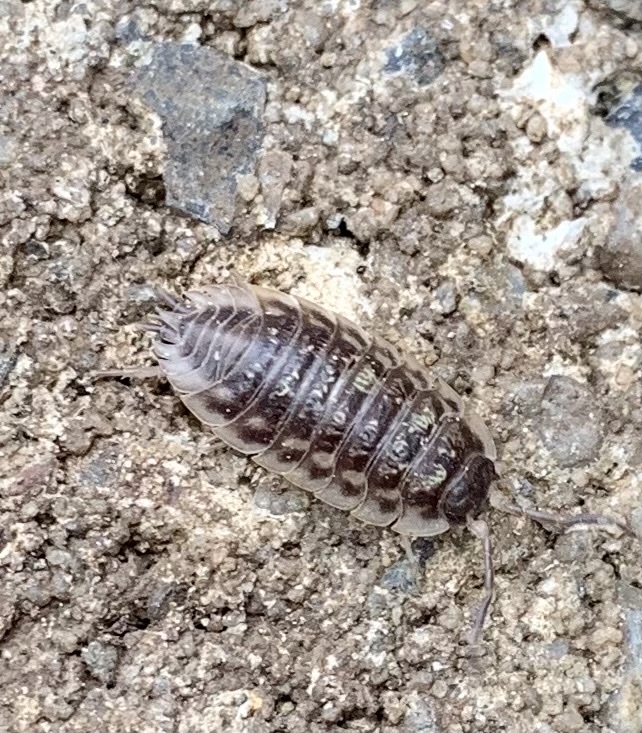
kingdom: Animalia
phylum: Arthropoda
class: Malacostraca
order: Isopoda
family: Oniscidae
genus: Oniscus
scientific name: Oniscus asellus
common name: Common shiny woodlouse
